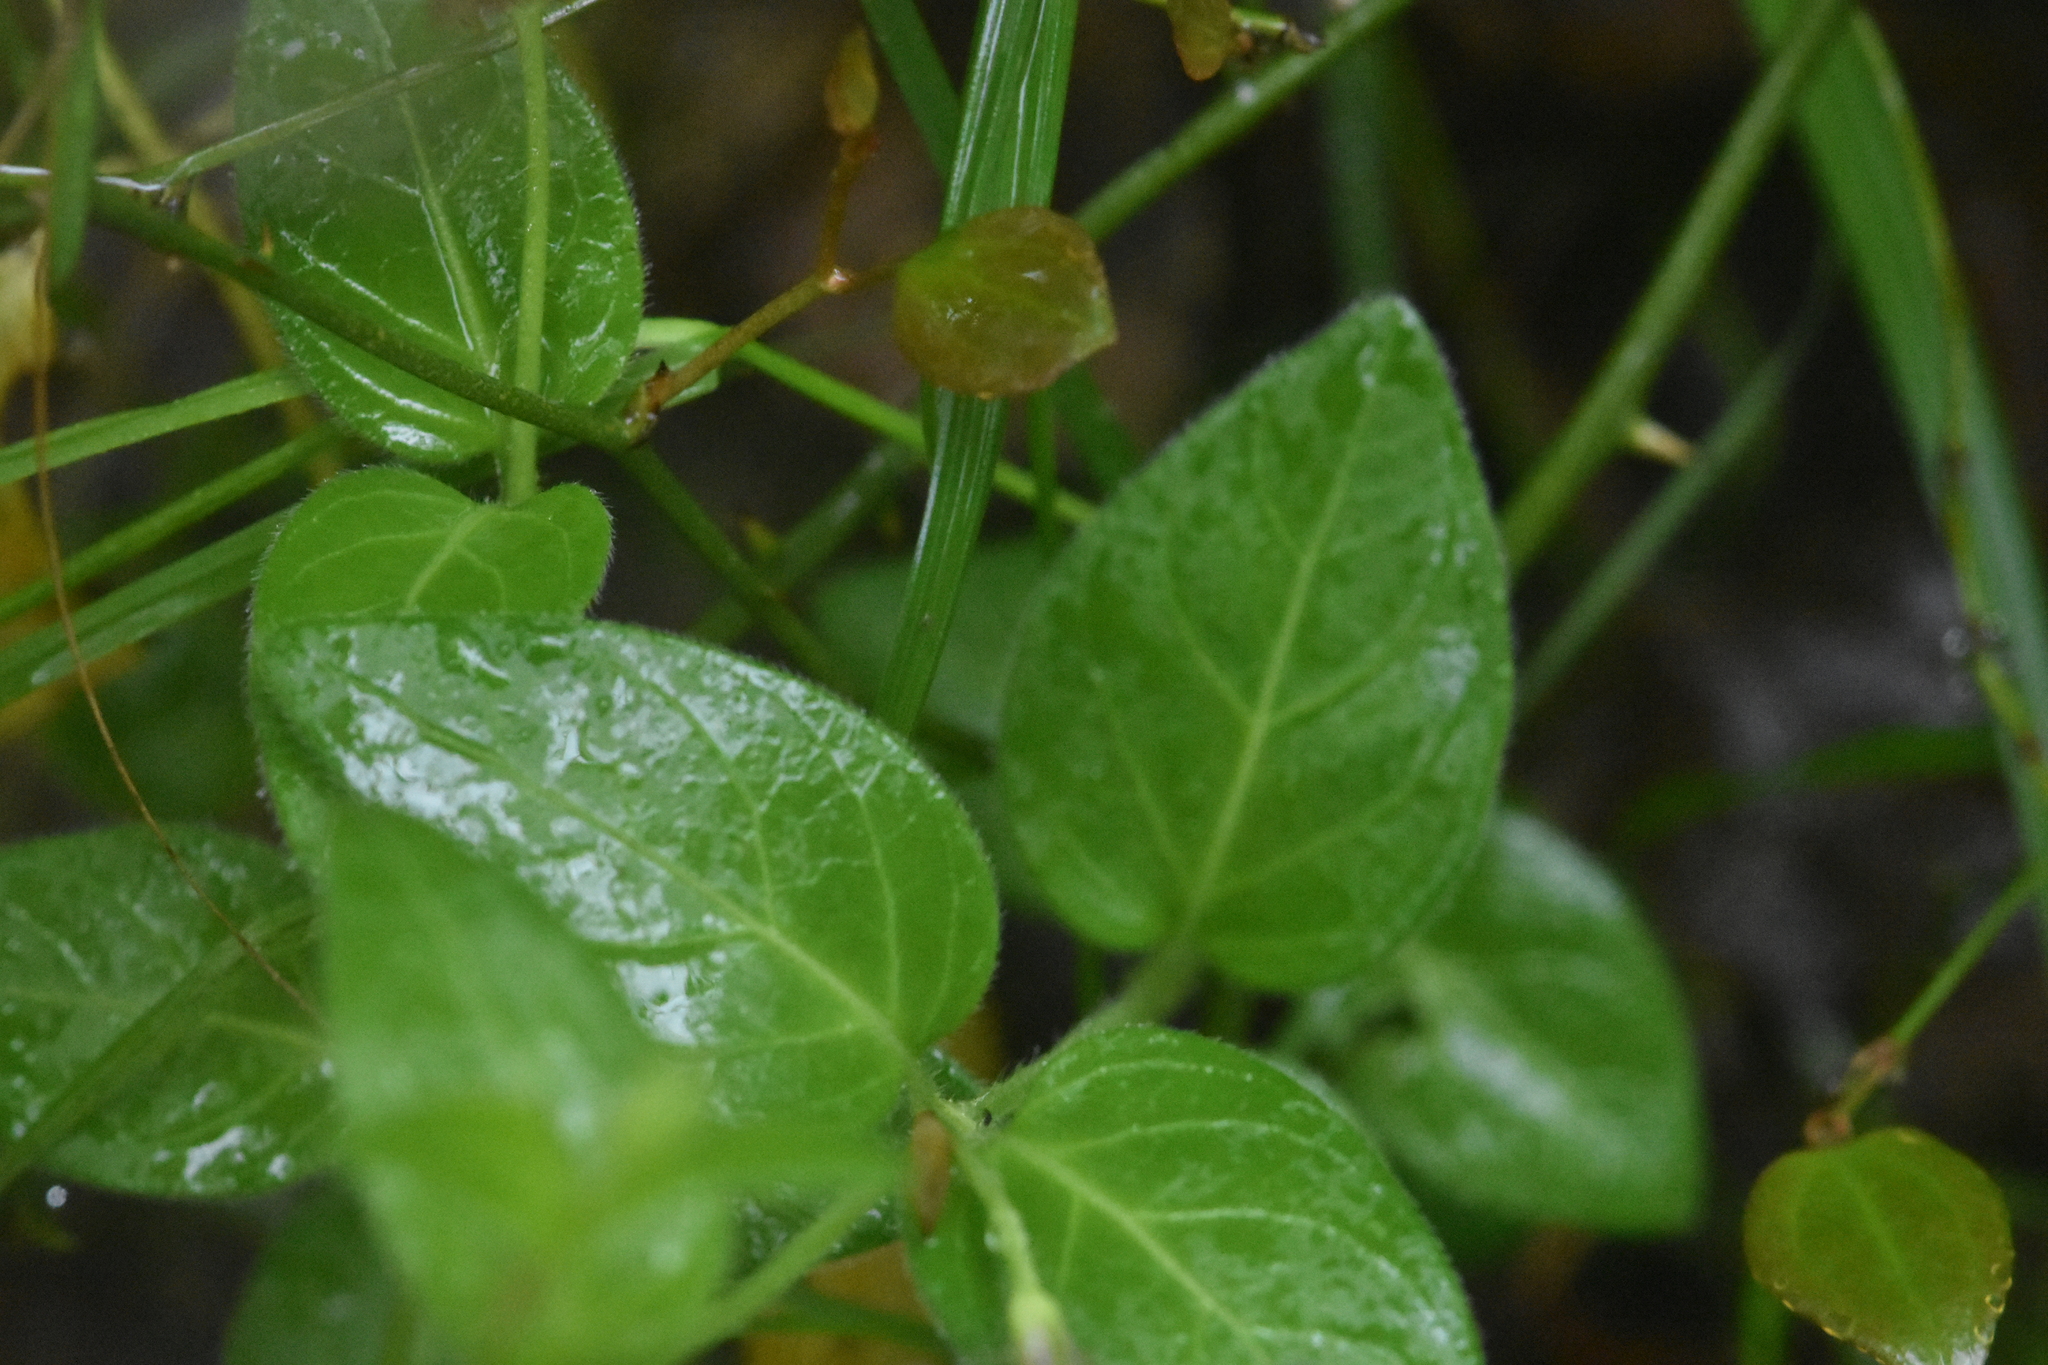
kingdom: Plantae
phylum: Tracheophyta
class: Magnoliopsida
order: Gentianales
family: Apocynaceae
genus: Vinca
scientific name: Vinca major
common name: Greater periwinkle
